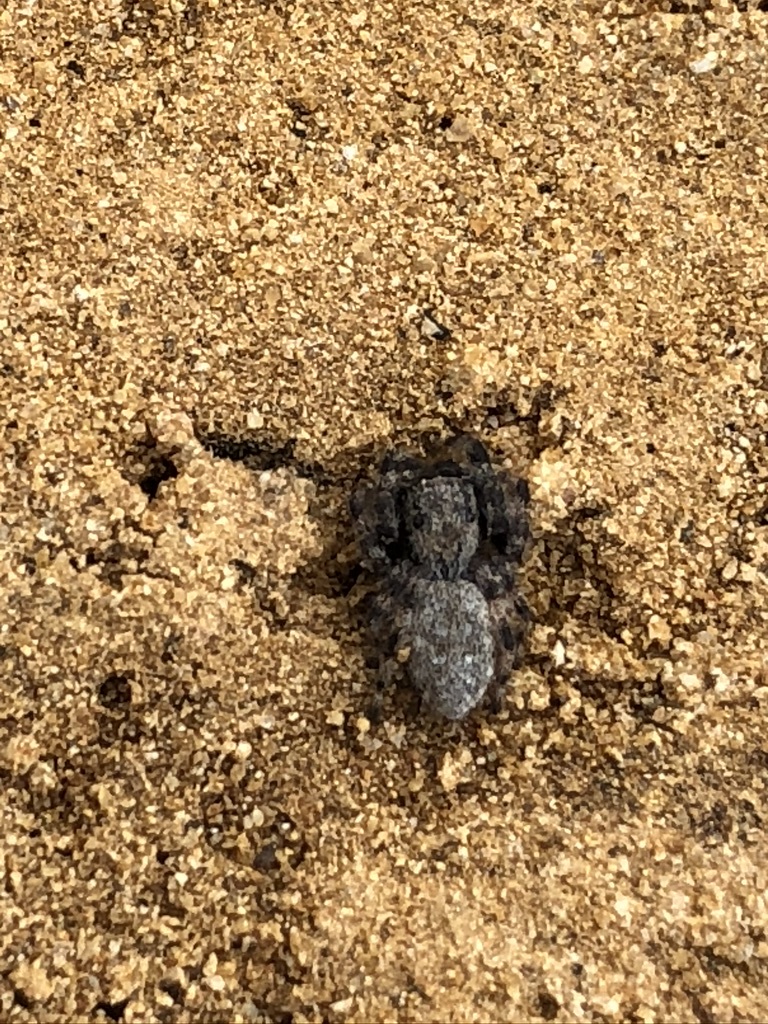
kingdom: Animalia
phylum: Arthropoda
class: Arachnida
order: Araneae
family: Salticidae
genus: Terralonus
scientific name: Terralonus californicus
